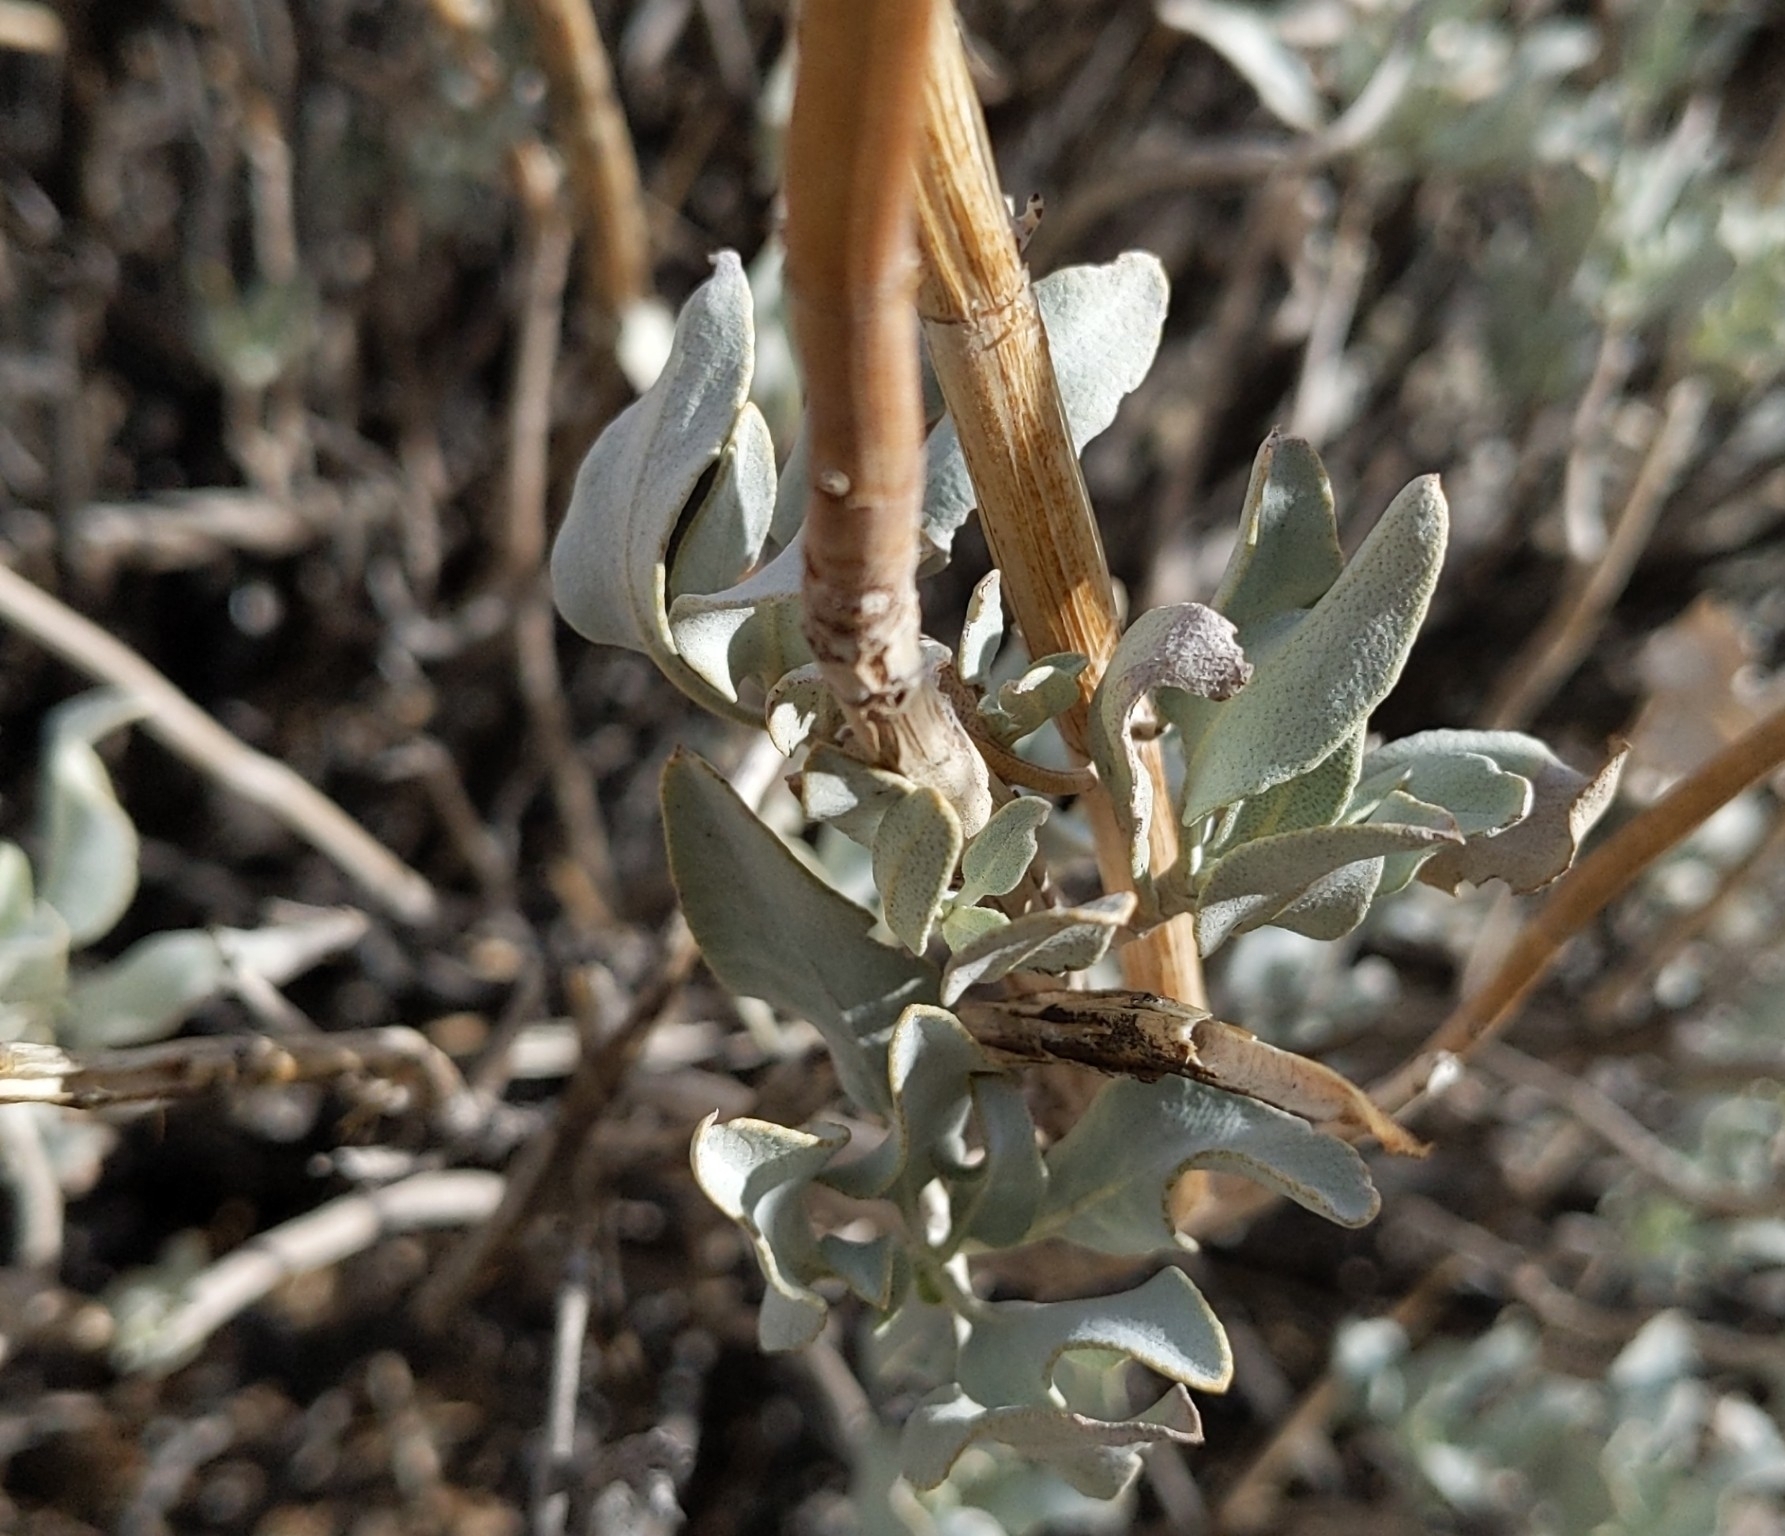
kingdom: Plantae
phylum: Tracheophyta
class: Magnoliopsida
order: Lamiales
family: Lamiaceae
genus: Salvia
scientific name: Salvia vaseyi
